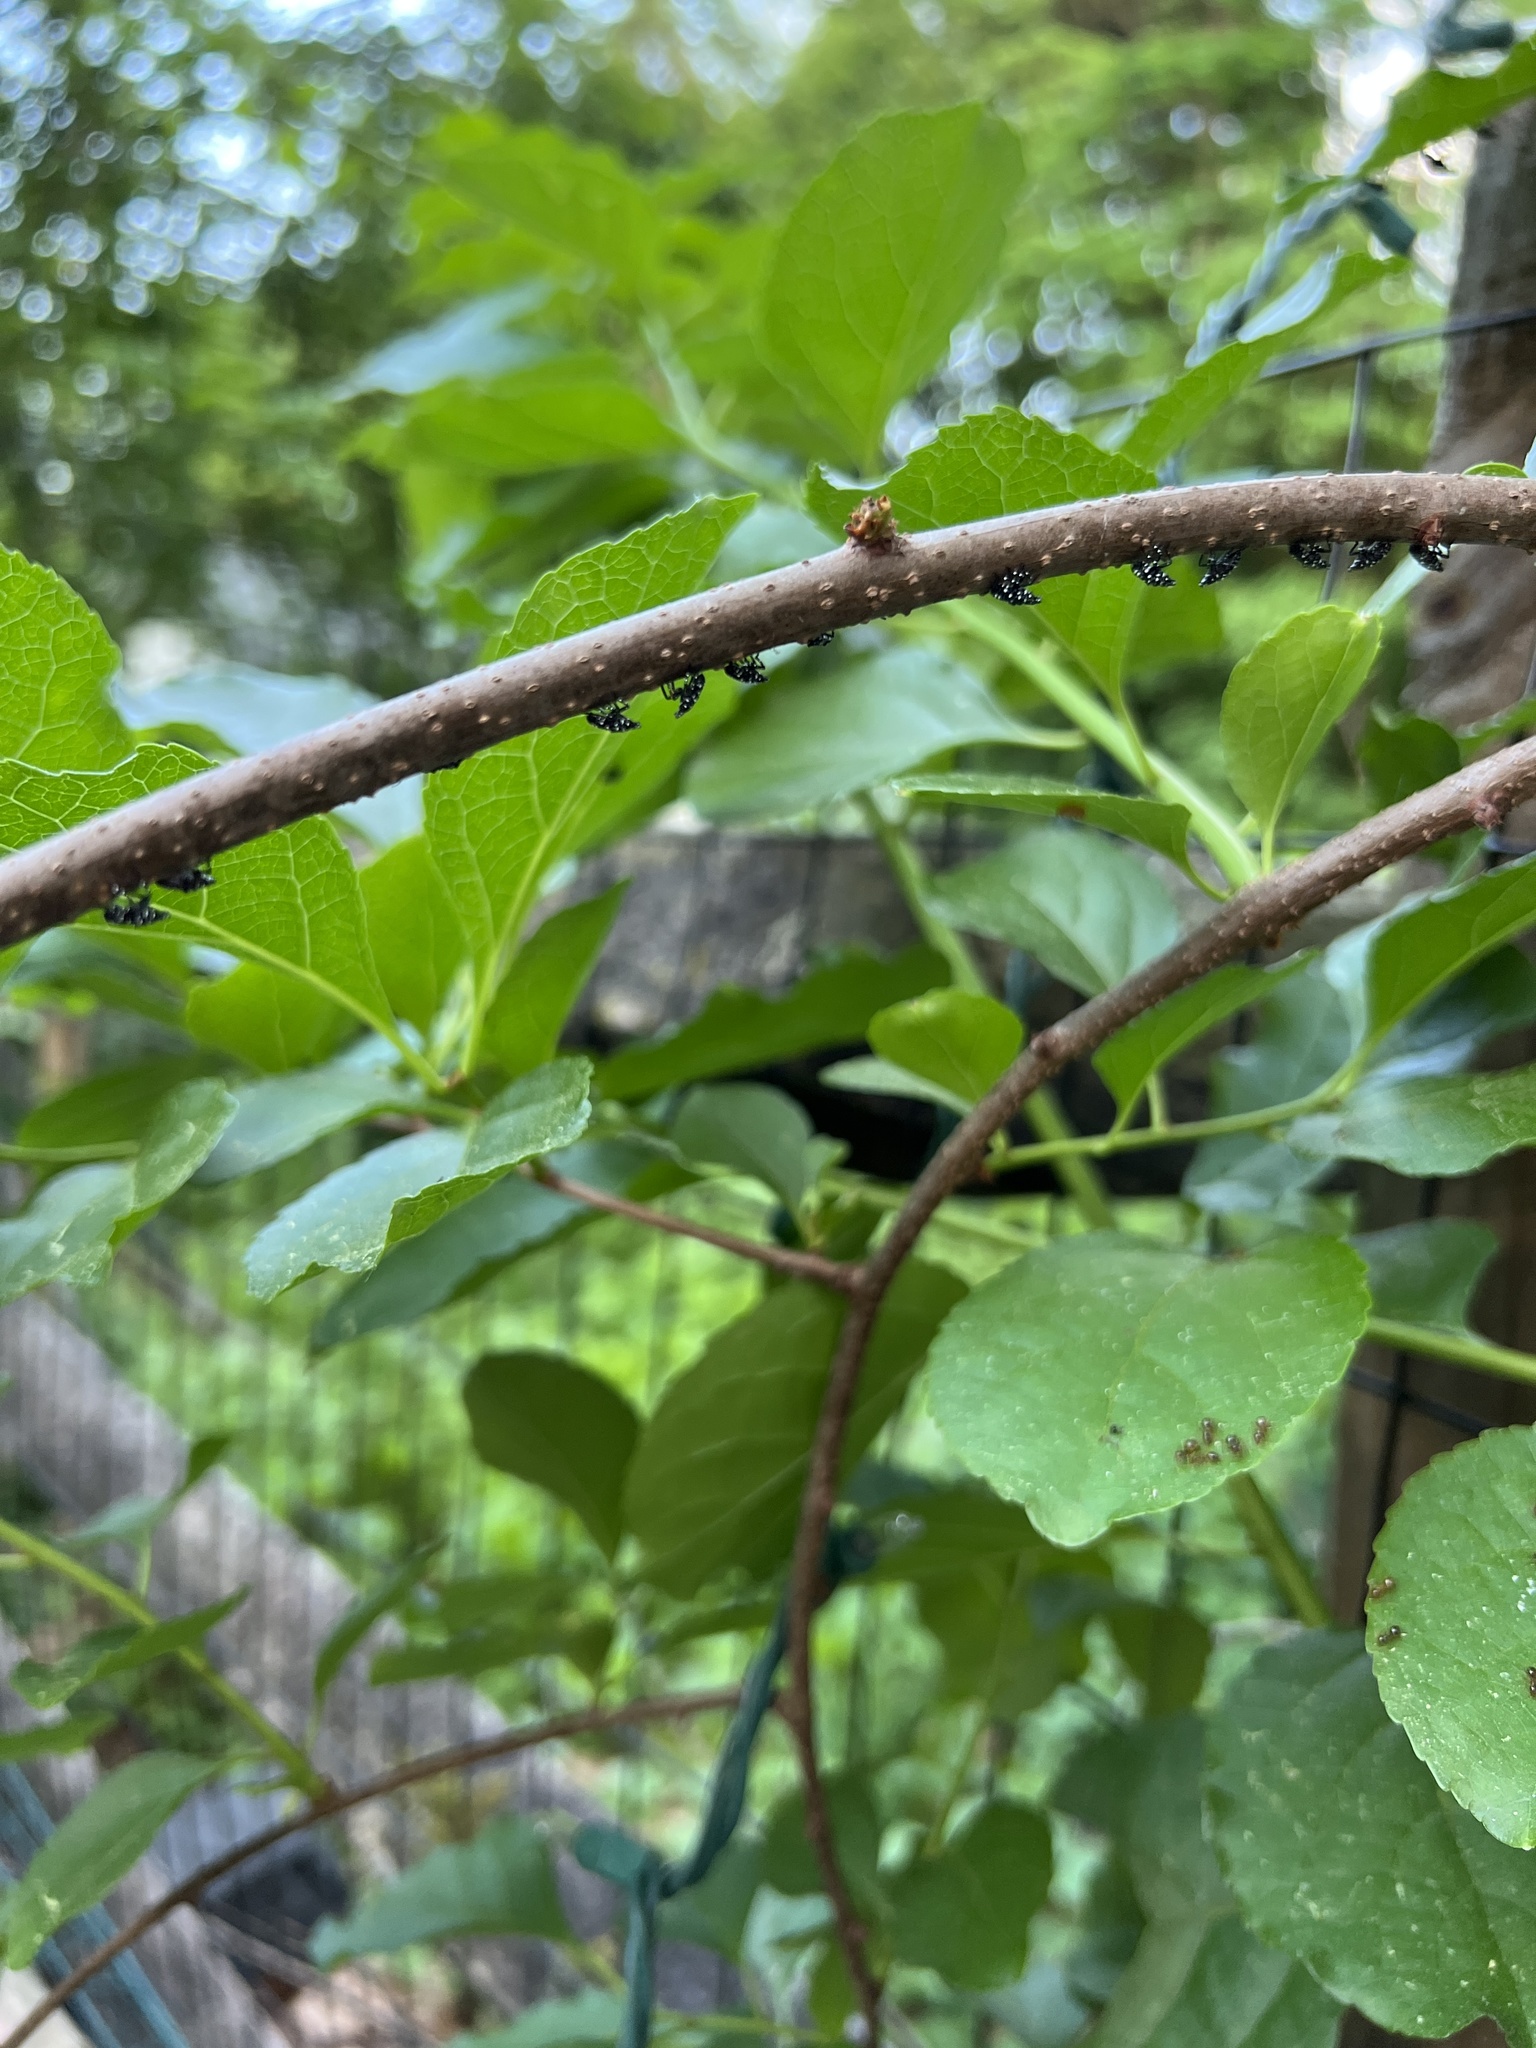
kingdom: Animalia
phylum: Arthropoda
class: Insecta
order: Hemiptera
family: Fulgoridae
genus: Lycorma
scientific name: Lycorma delicatula
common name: Spotted lanternfly
